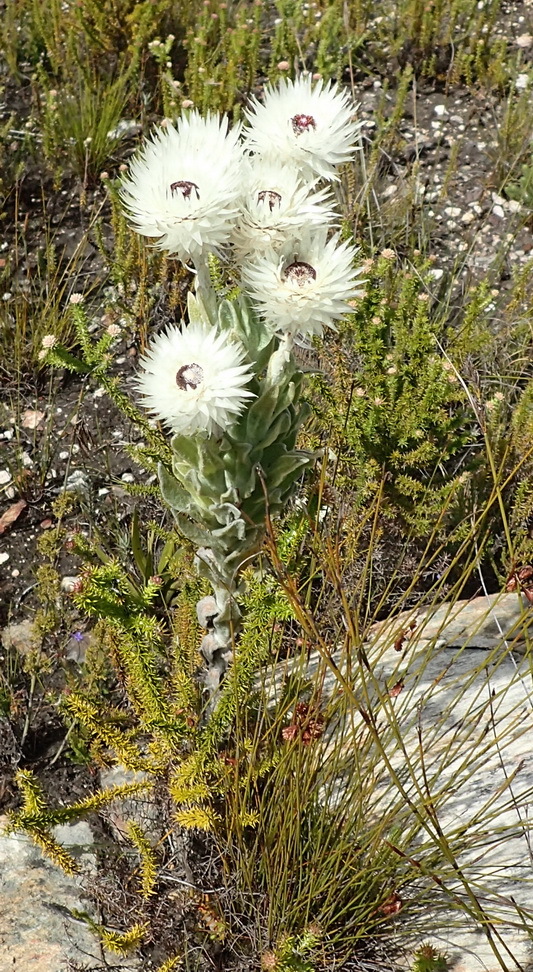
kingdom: Plantae
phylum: Tracheophyta
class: Magnoliopsida
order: Asterales
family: Asteraceae
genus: Syncarpha
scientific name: Syncarpha vestita
